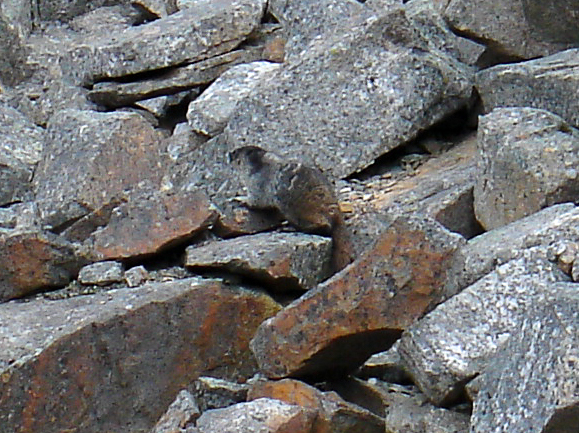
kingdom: Animalia
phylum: Chordata
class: Mammalia
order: Rodentia
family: Sciuridae
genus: Marmota
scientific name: Marmota caligata
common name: Hoary marmot
